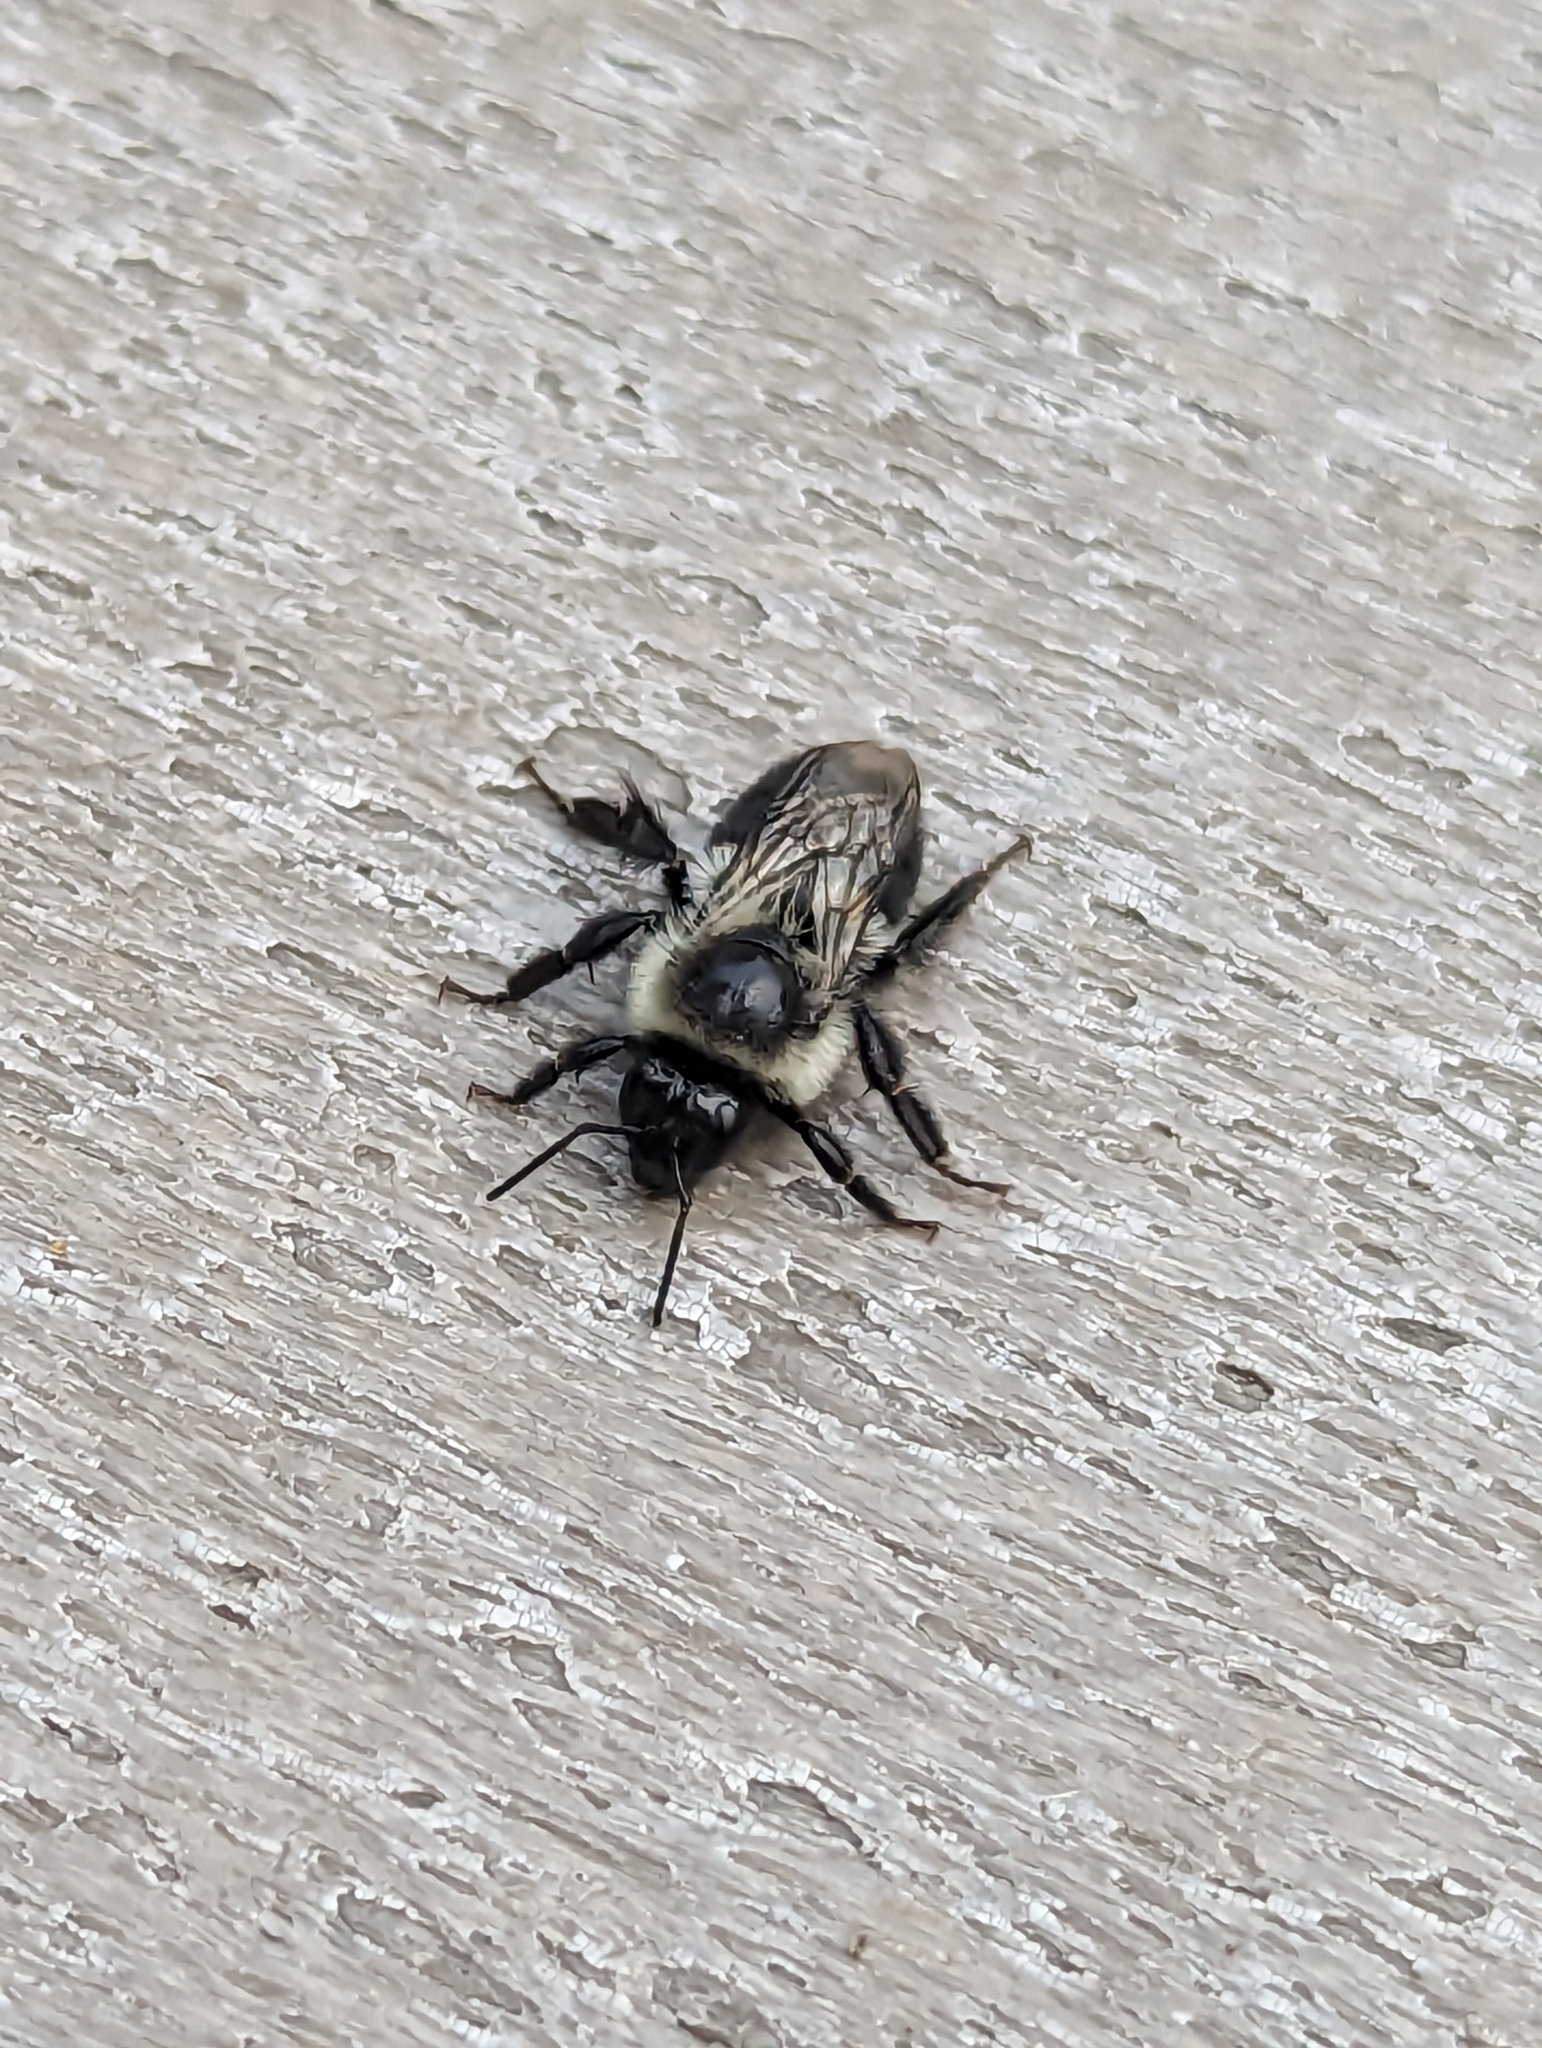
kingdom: Animalia
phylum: Arthropoda
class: Insecta
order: Hymenoptera
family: Apidae
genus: Bombus
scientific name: Bombus impatiens
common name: Common eastern bumble bee
